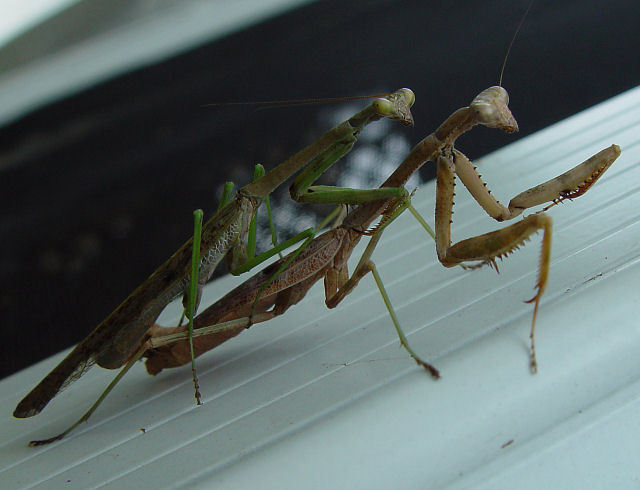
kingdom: Animalia
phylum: Arthropoda
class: Insecta
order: Mantodea
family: Mantidae
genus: Stagmomantis
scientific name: Stagmomantis carolina
